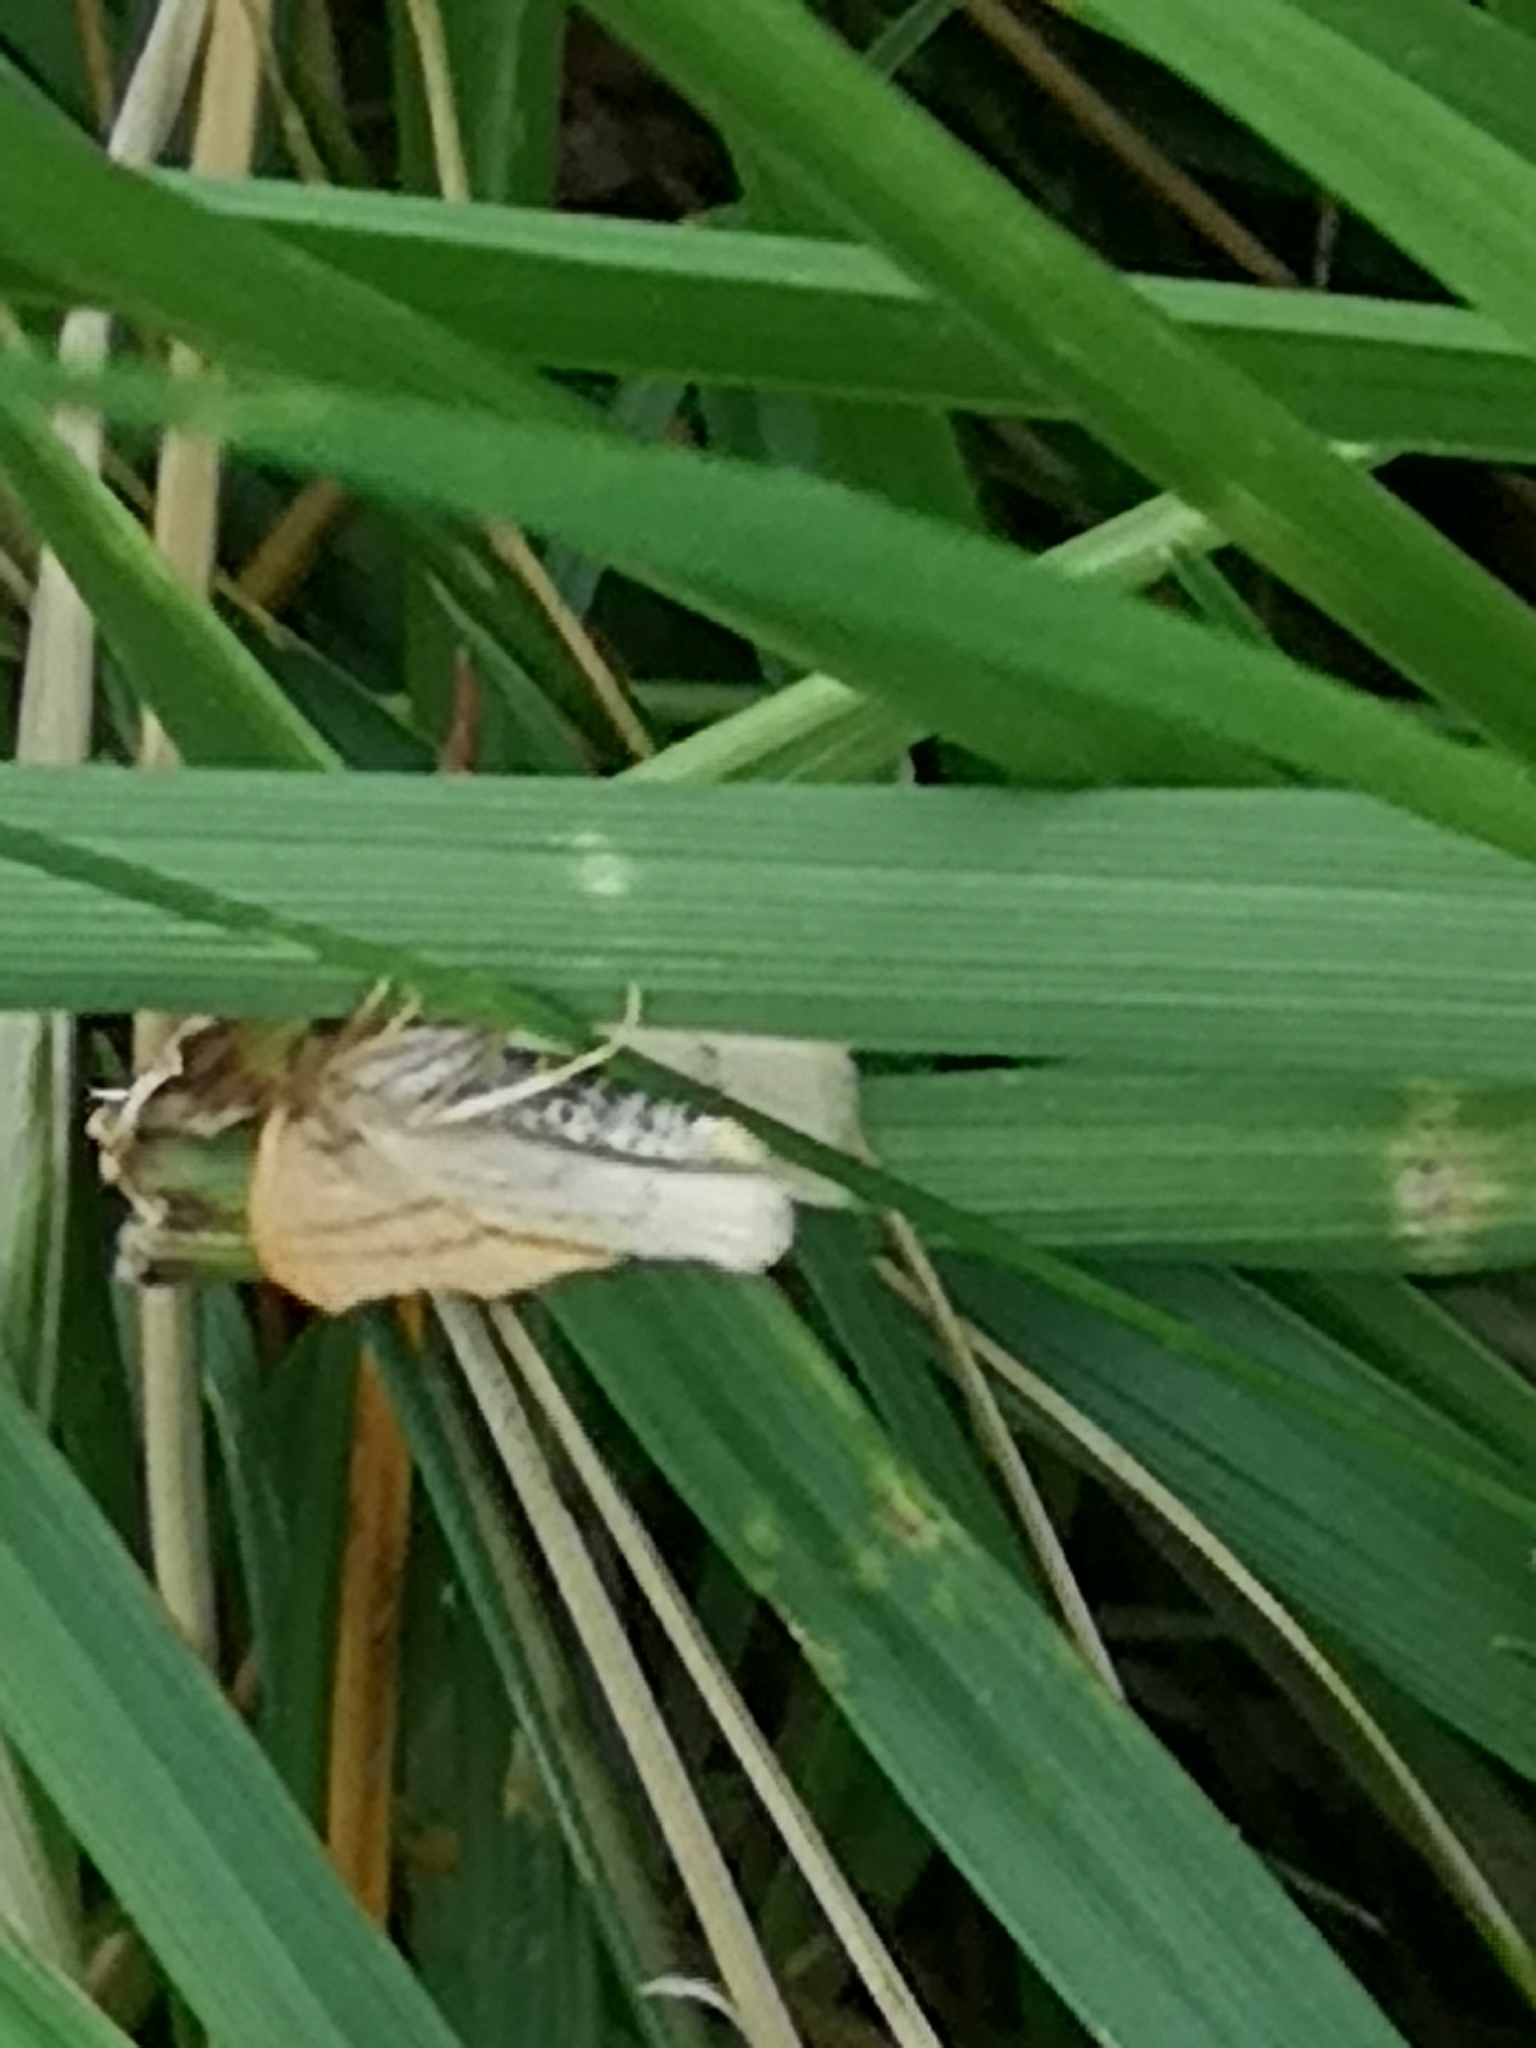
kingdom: Animalia
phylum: Arthropoda
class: Insecta
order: Lepidoptera
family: Geometridae
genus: Cyclophora
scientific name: Cyclophora linearia
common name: Clay triple-lines
